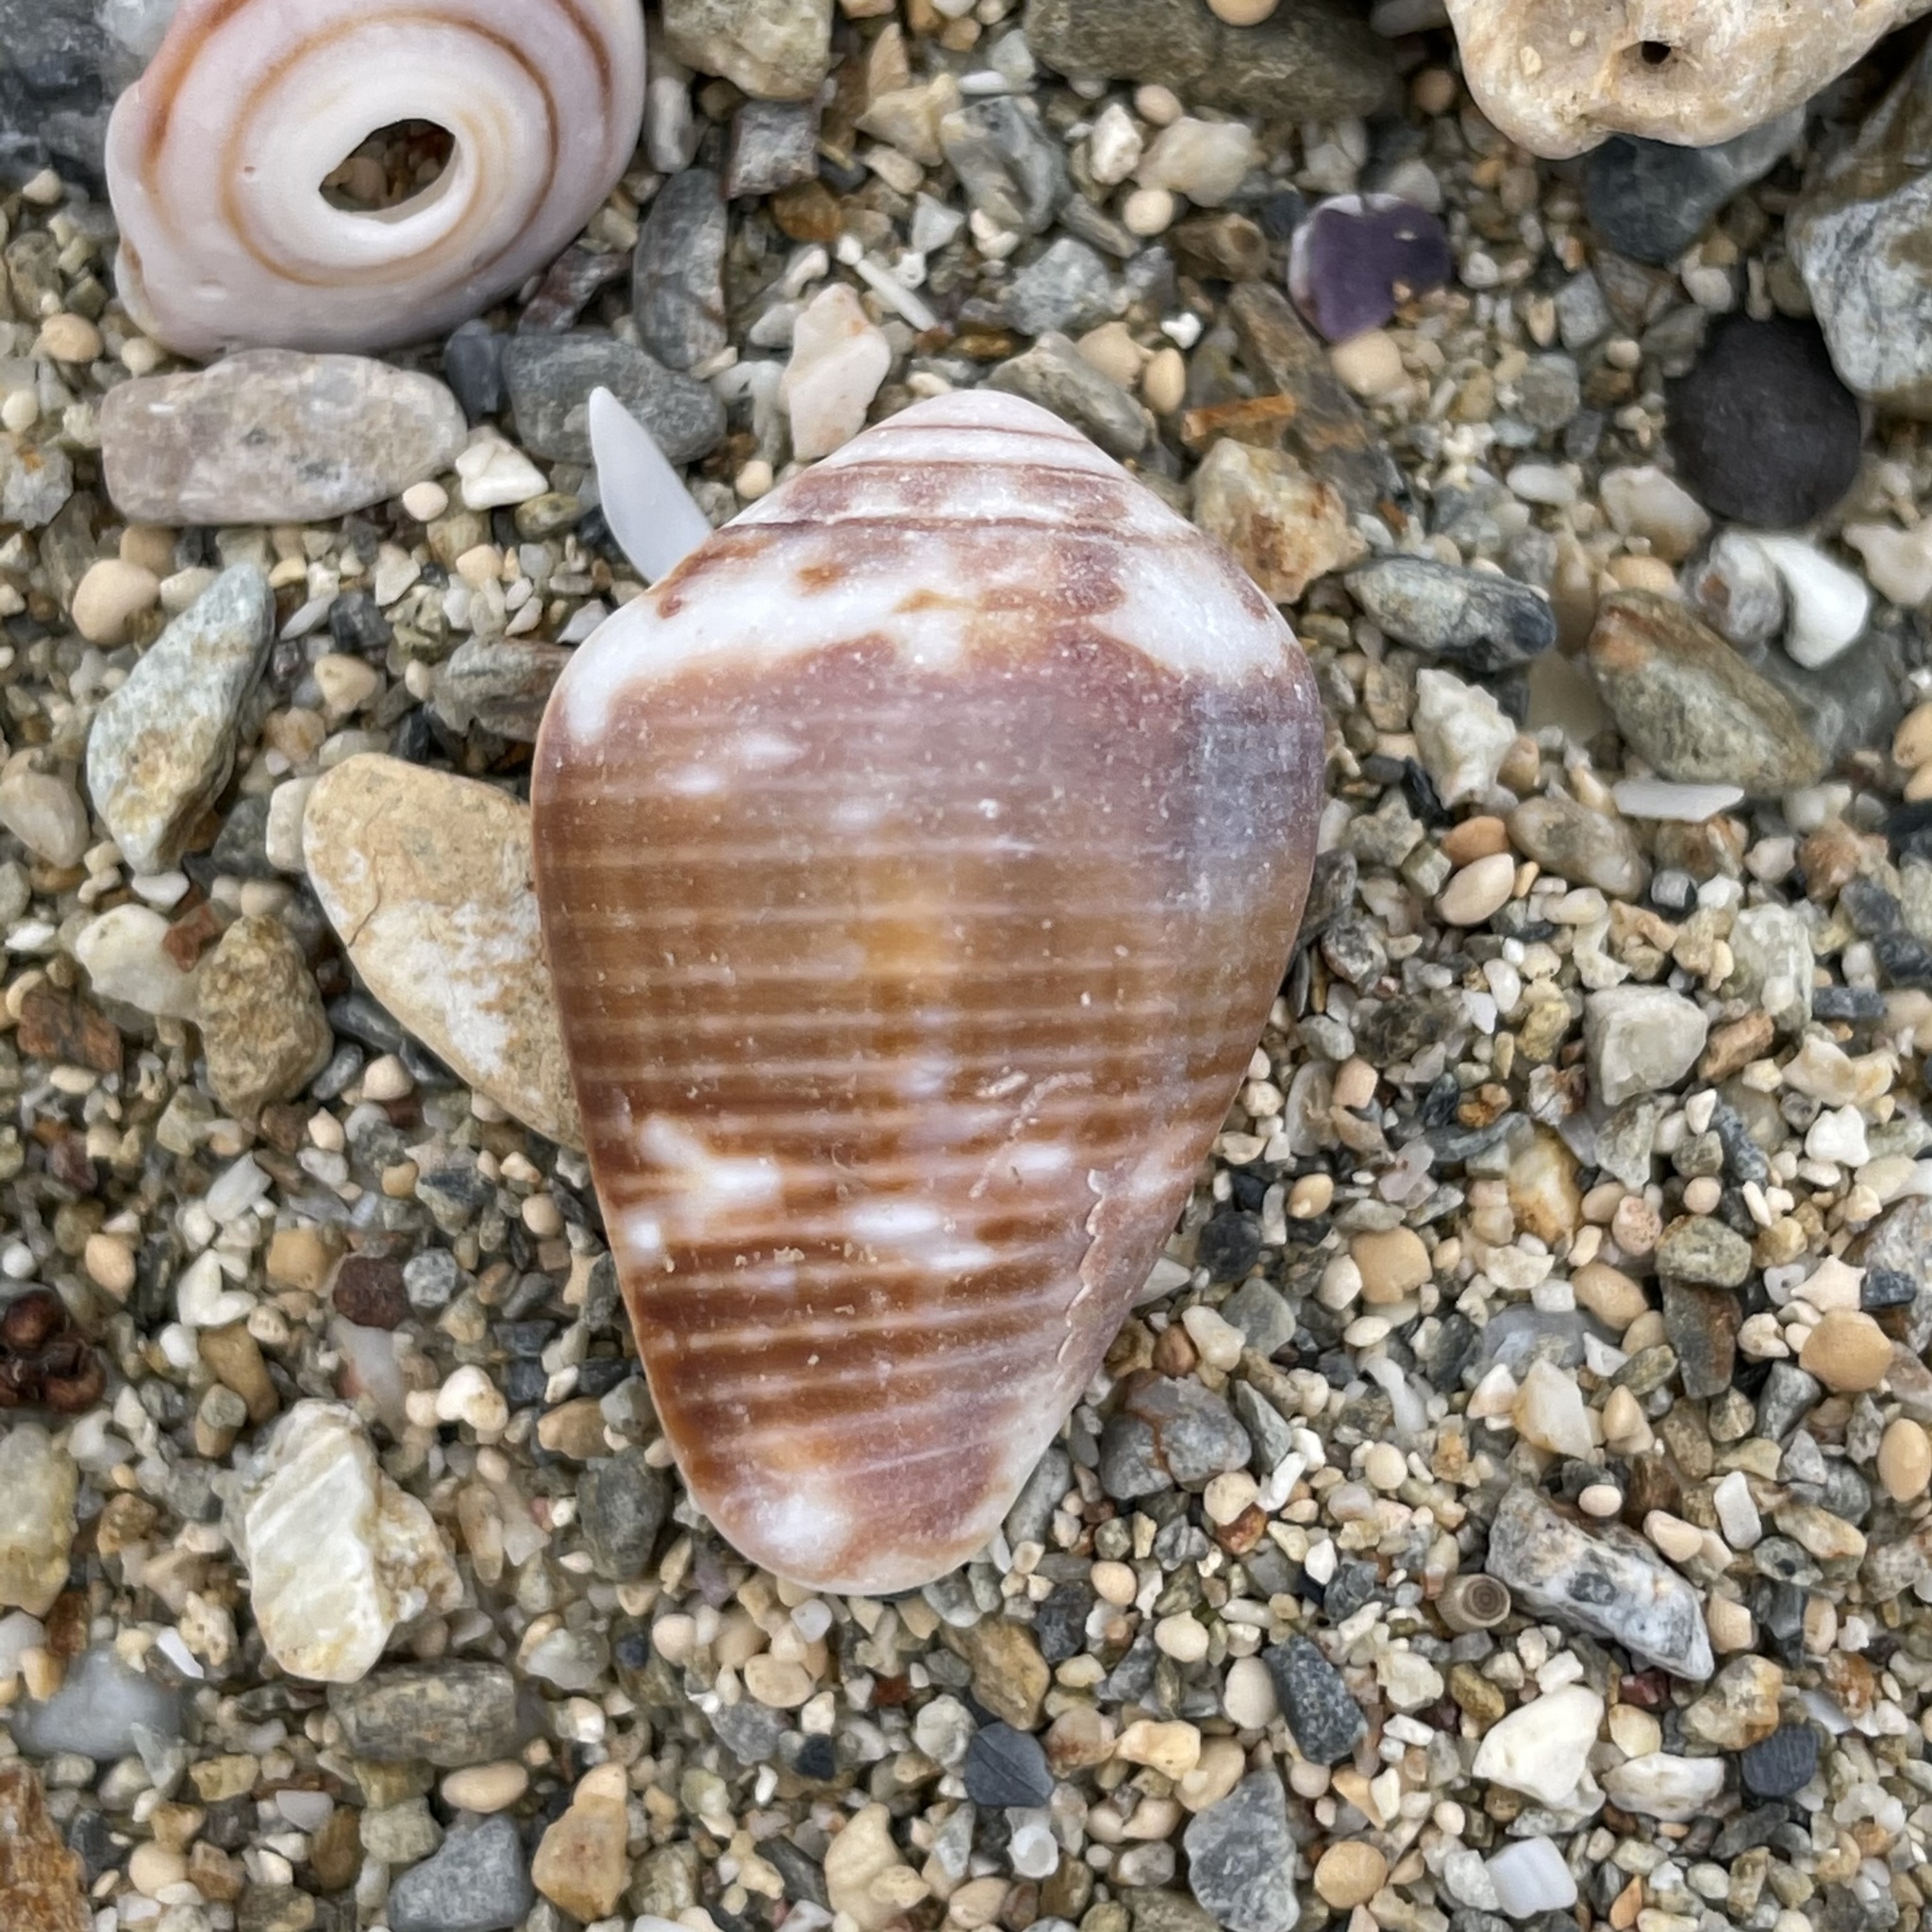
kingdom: Animalia
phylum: Mollusca
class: Gastropoda
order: Neogastropoda
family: Conidae
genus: Conus
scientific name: Conus catus
